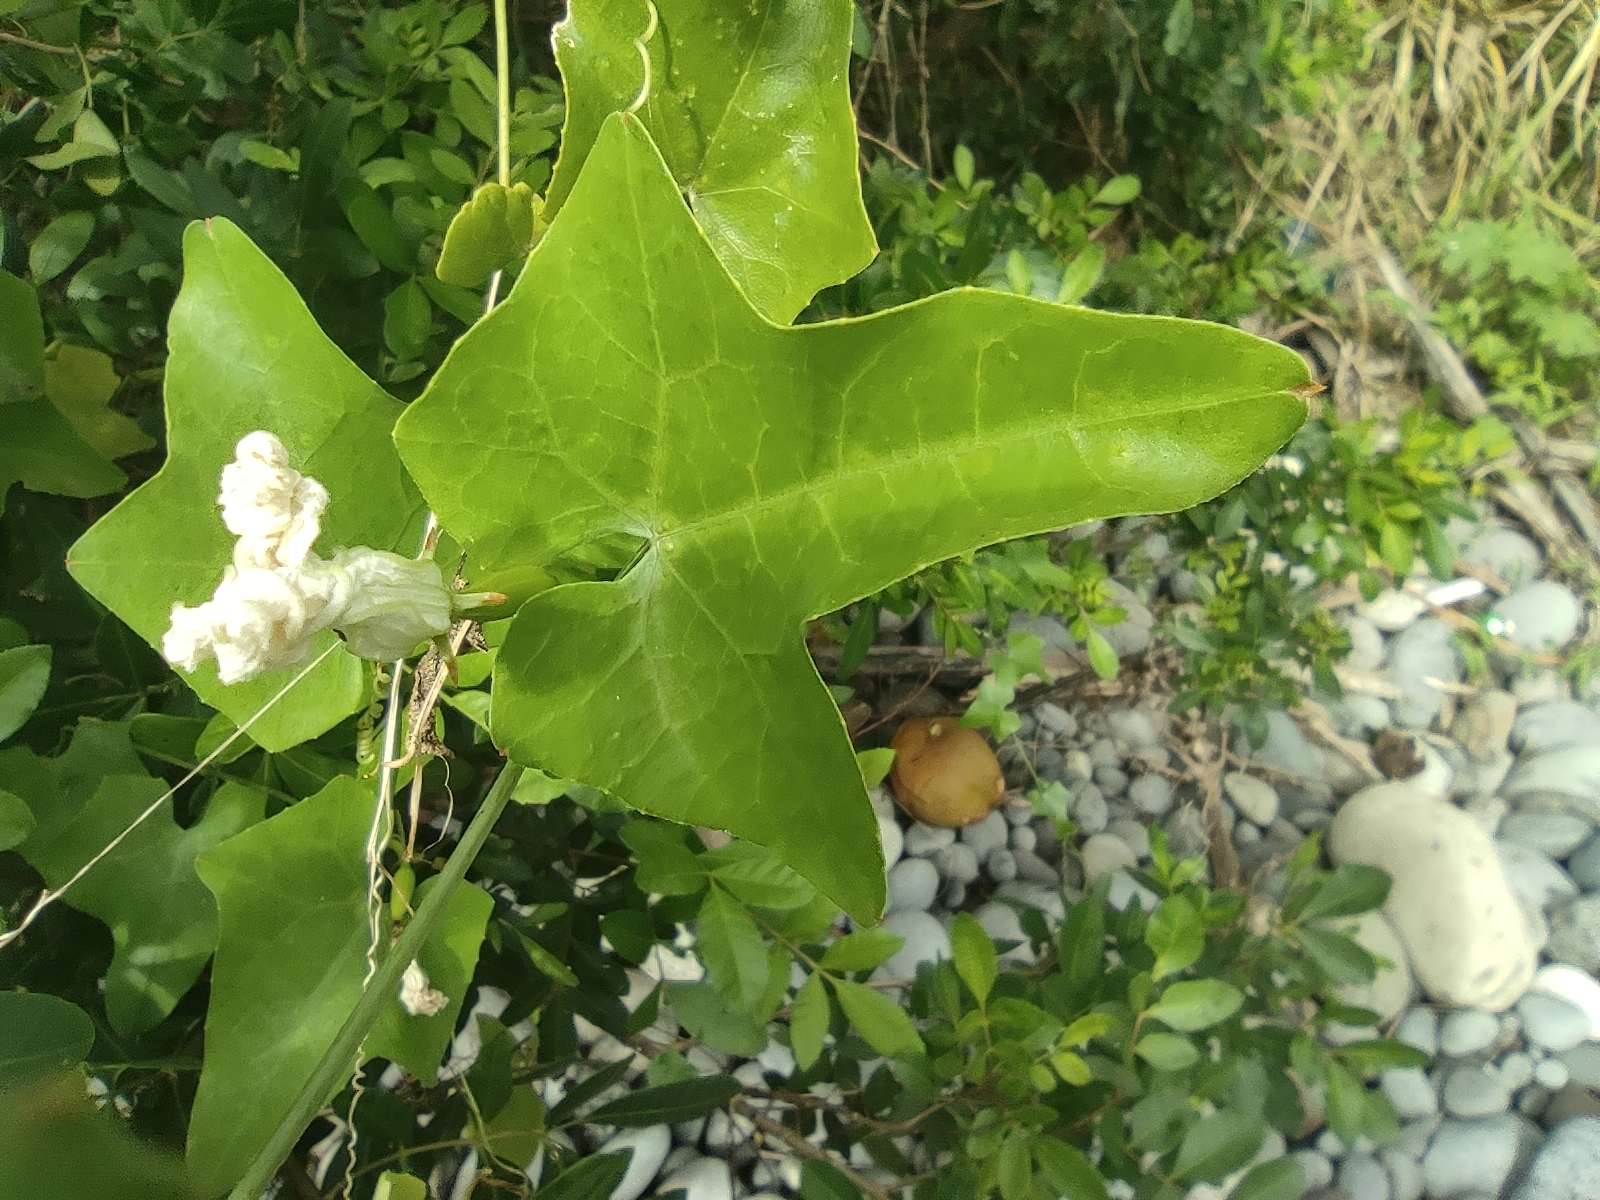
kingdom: Plantae
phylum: Tracheophyta
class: Magnoliopsida
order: Cucurbitales
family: Cucurbitaceae
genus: Coccinia
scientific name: Coccinia grandis
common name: Ivy gourd
